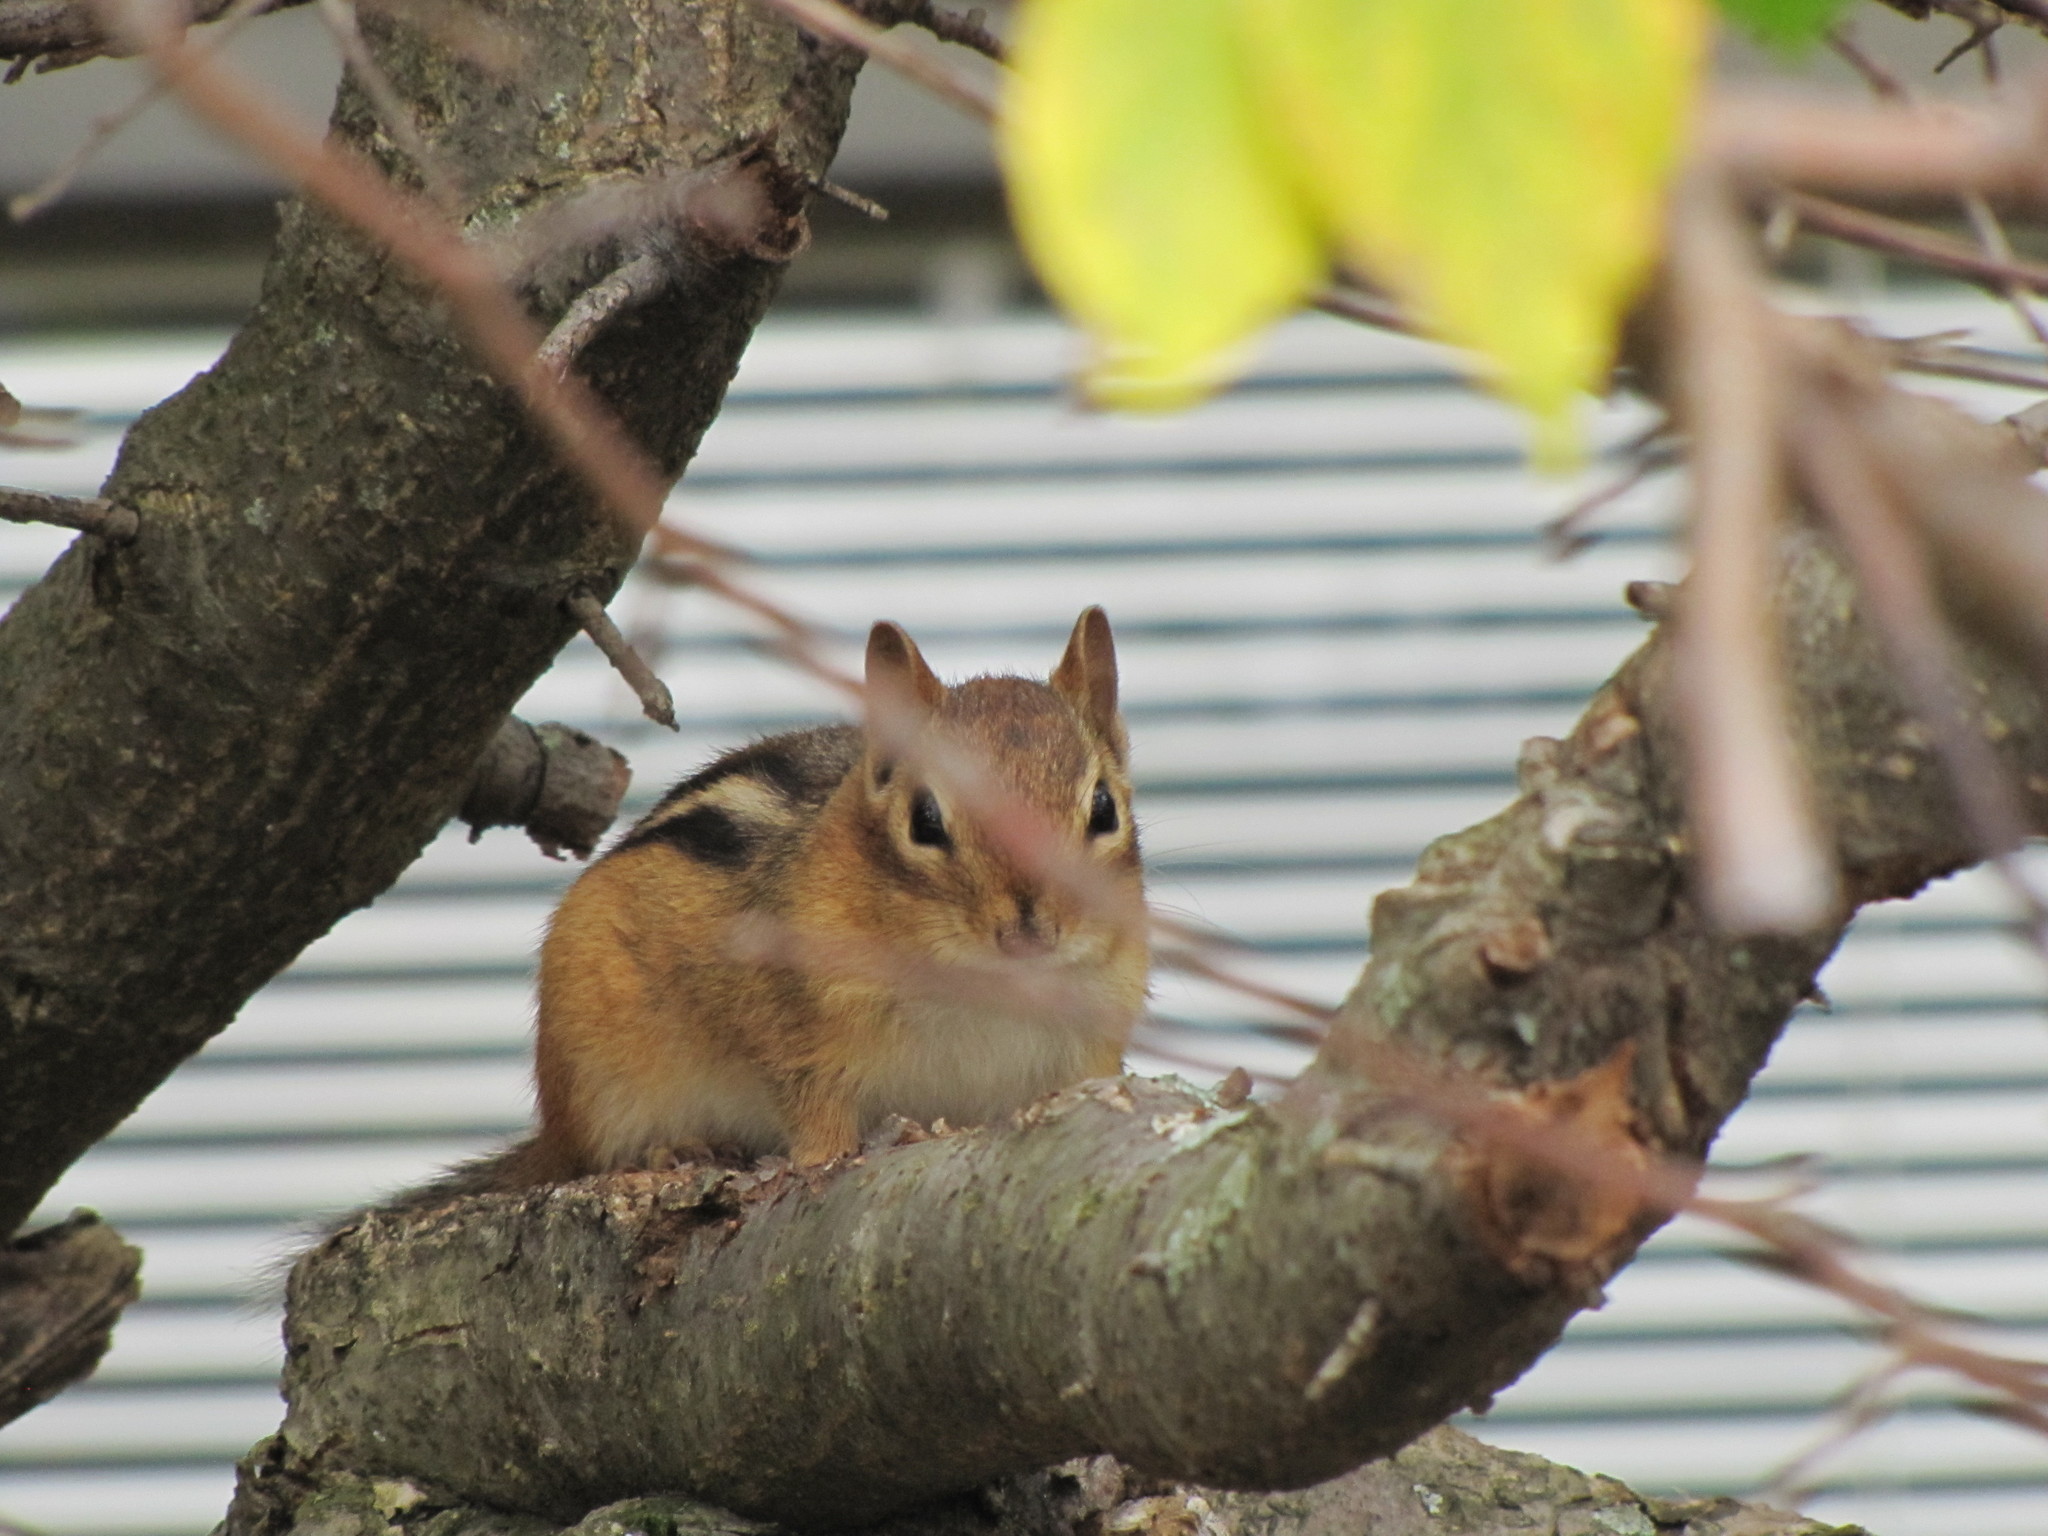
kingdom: Animalia
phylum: Chordata
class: Mammalia
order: Rodentia
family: Sciuridae
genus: Tamias
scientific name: Tamias striatus
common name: Eastern chipmunk
